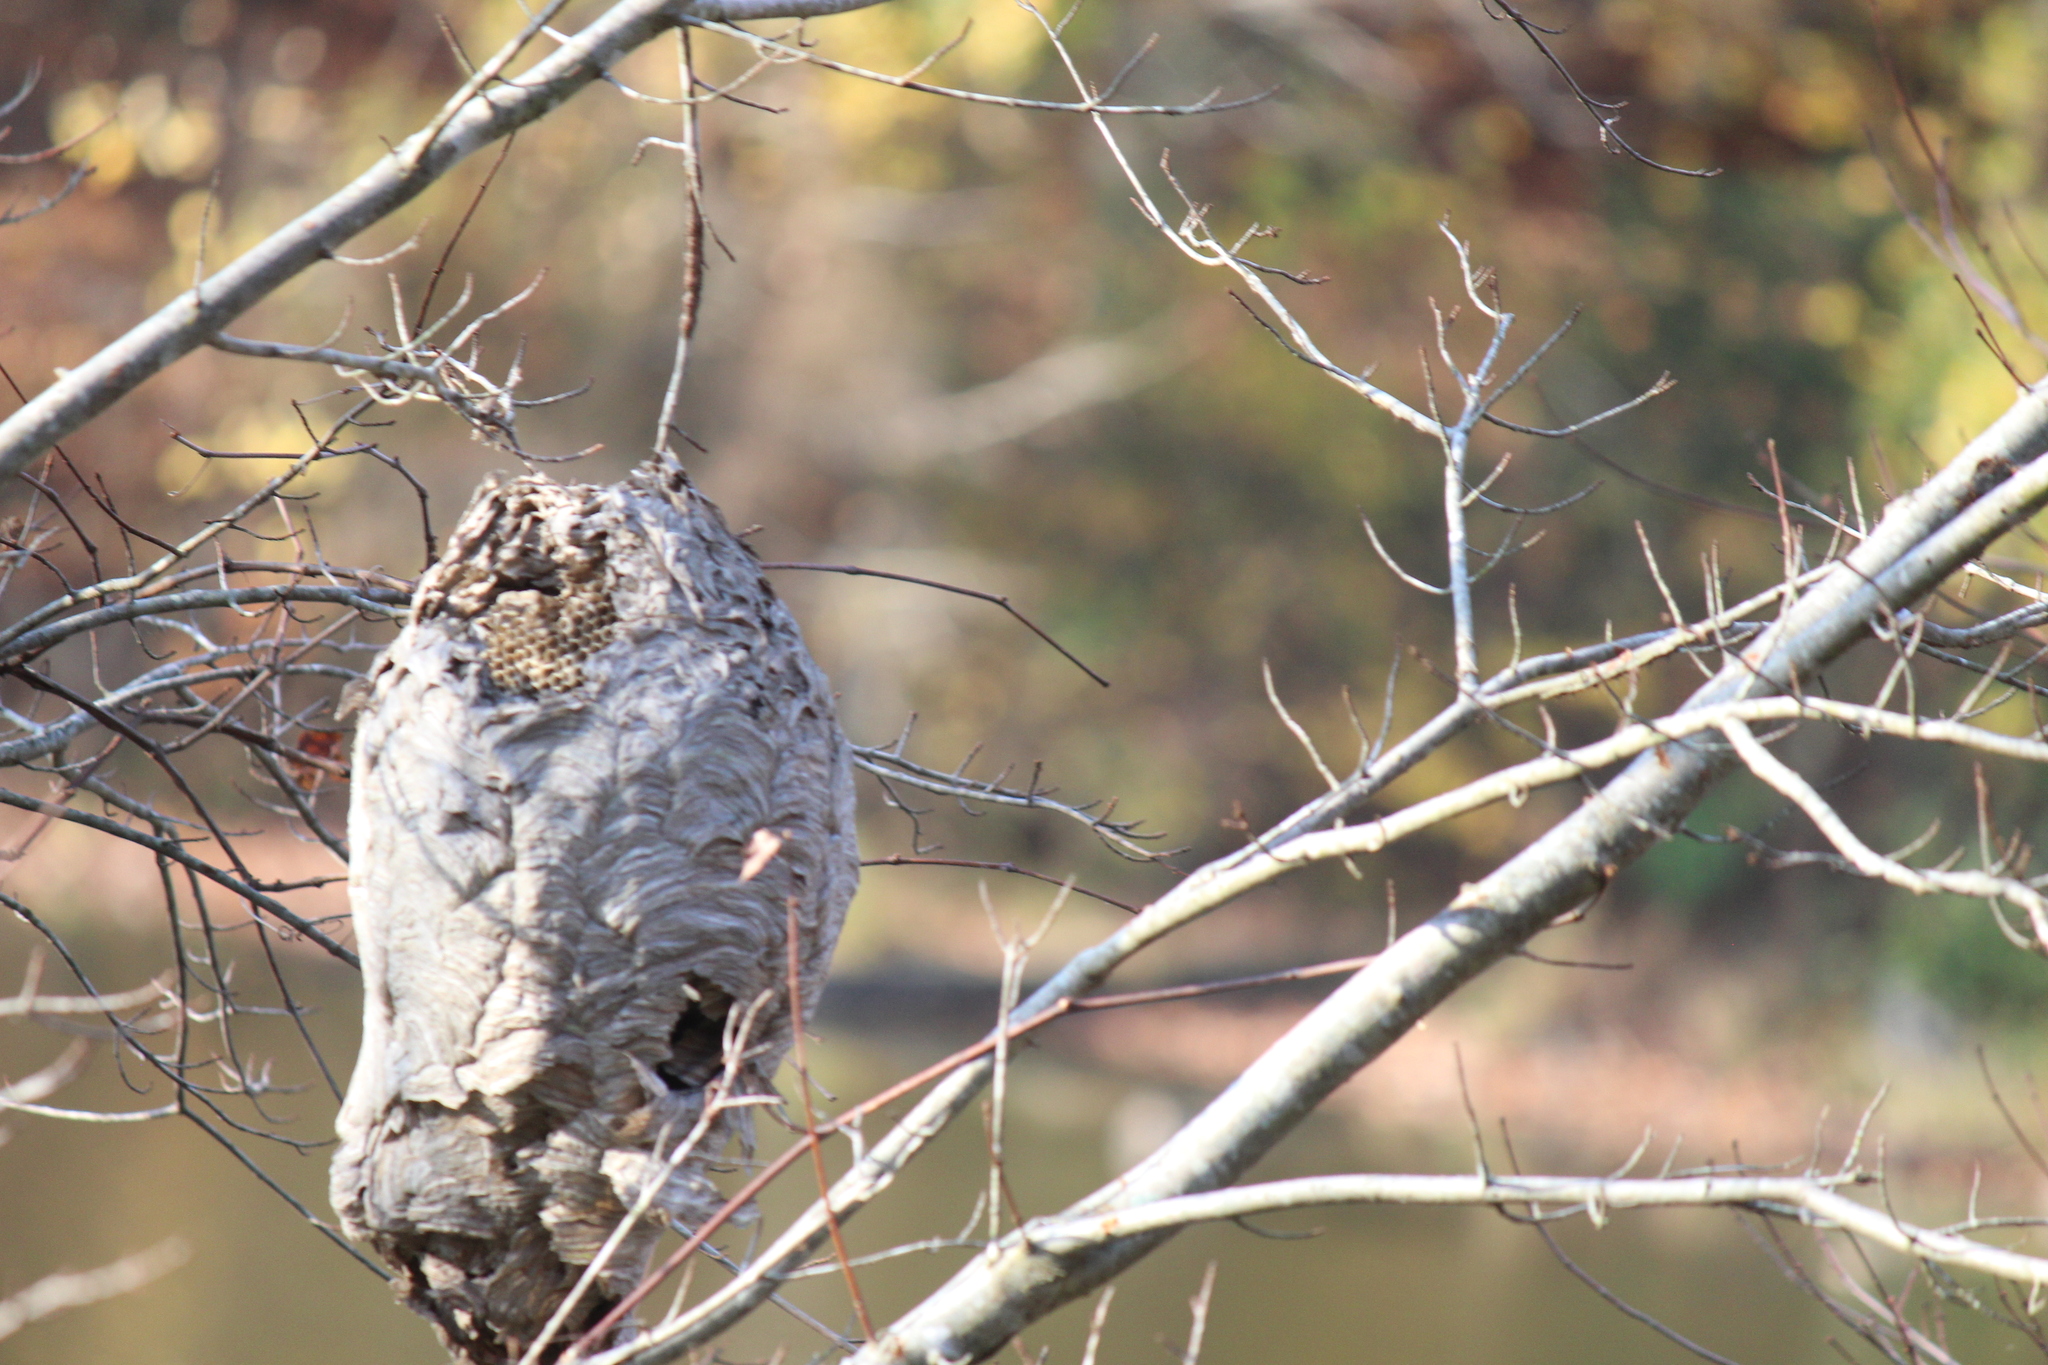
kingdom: Animalia
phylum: Arthropoda
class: Insecta
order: Hymenoptera
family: Vespidae
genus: Dolichovespula
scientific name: Dolichovespula maculata
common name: Bald-faced hornet
